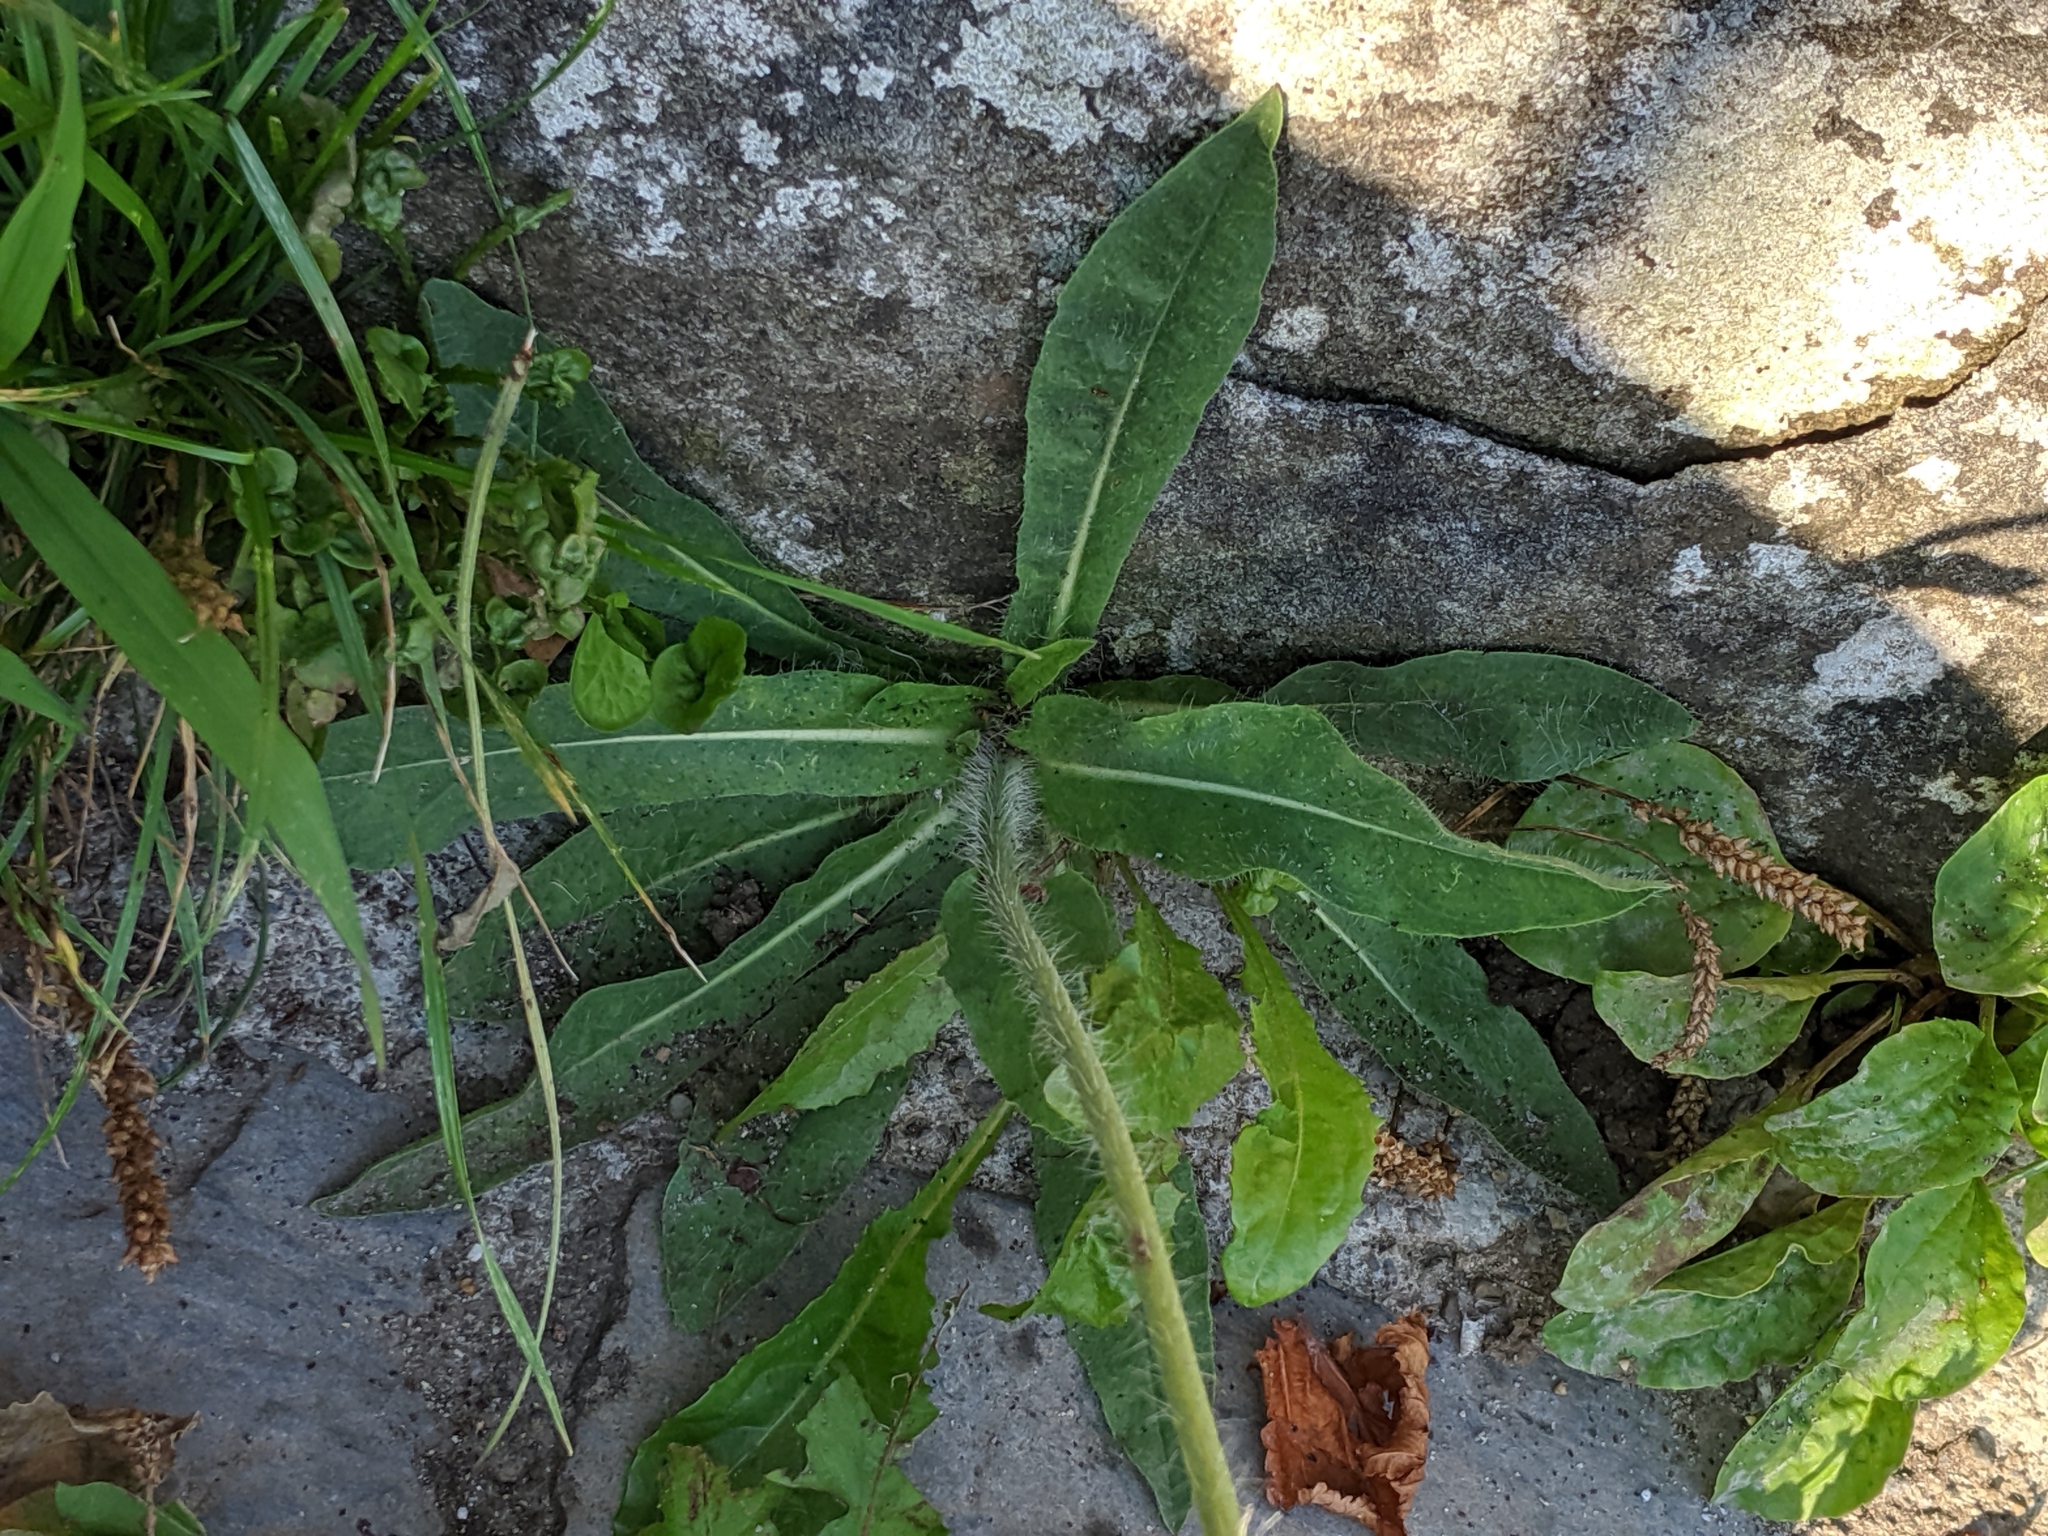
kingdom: Plantae
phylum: Tracheophyta
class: Magnoliopsida
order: Asterales
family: Asteraceae
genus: Pilosella
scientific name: Pilosella aurantiaca
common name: Fox-and-cubs
